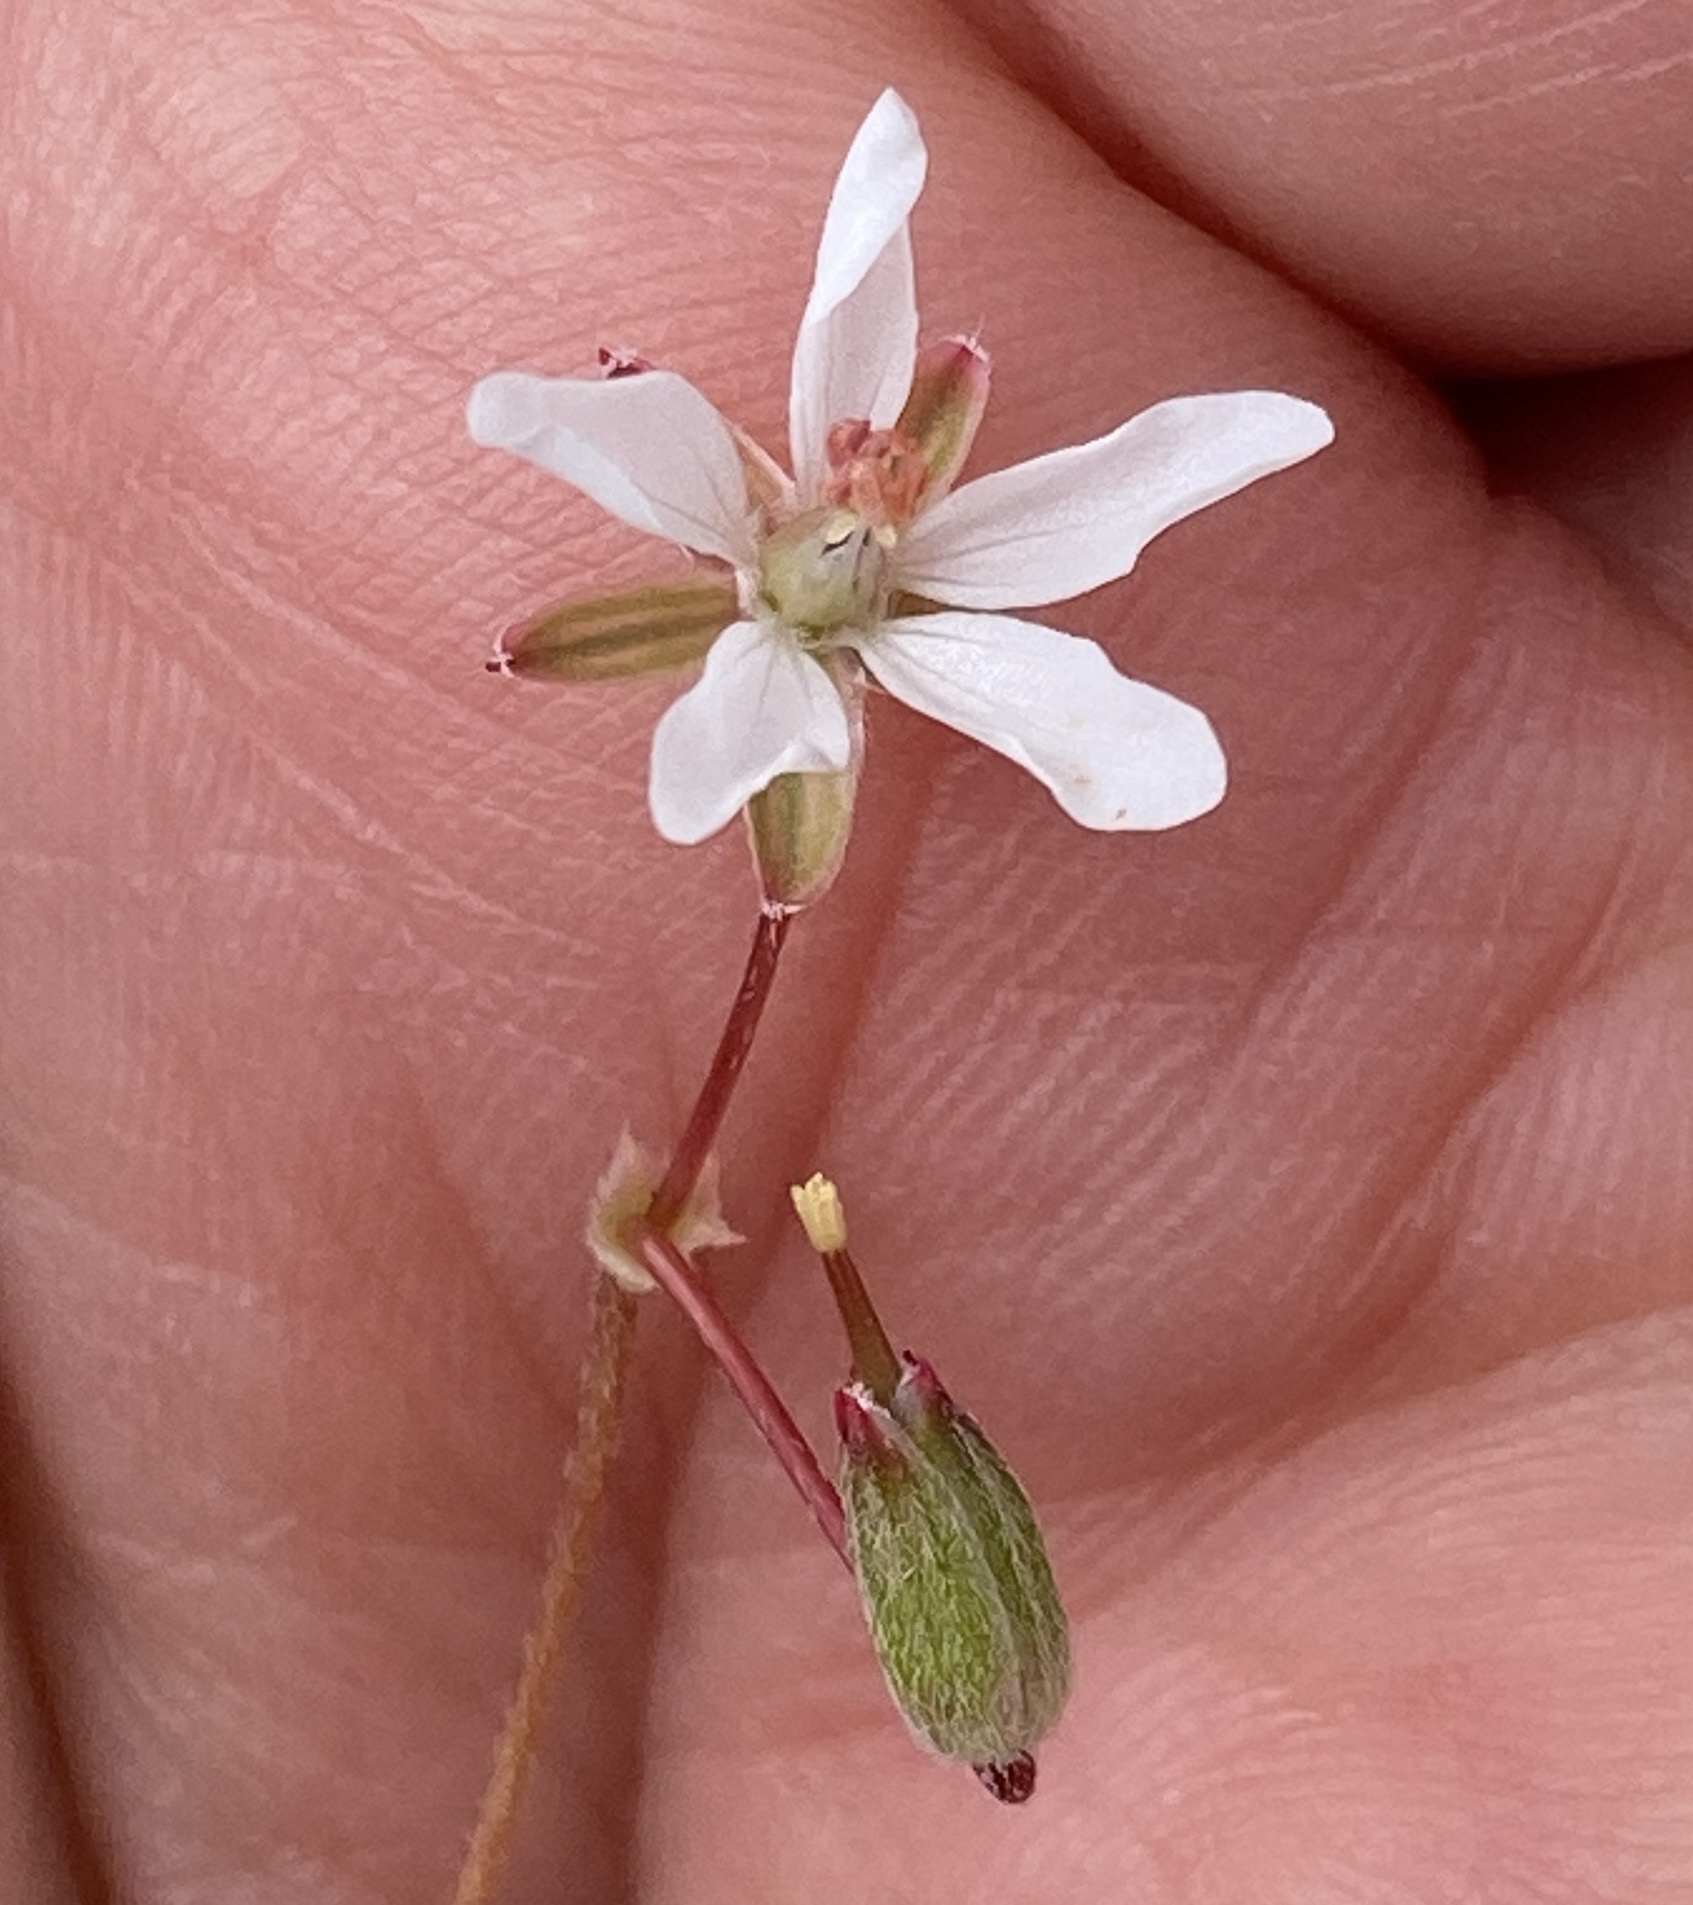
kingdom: Plantae
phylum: Tracheophyta
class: Magnoliopsida
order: Geraniales
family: Geraniaceae
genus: Erodium
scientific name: Erodium cicutarium
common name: Common stork's-bill
